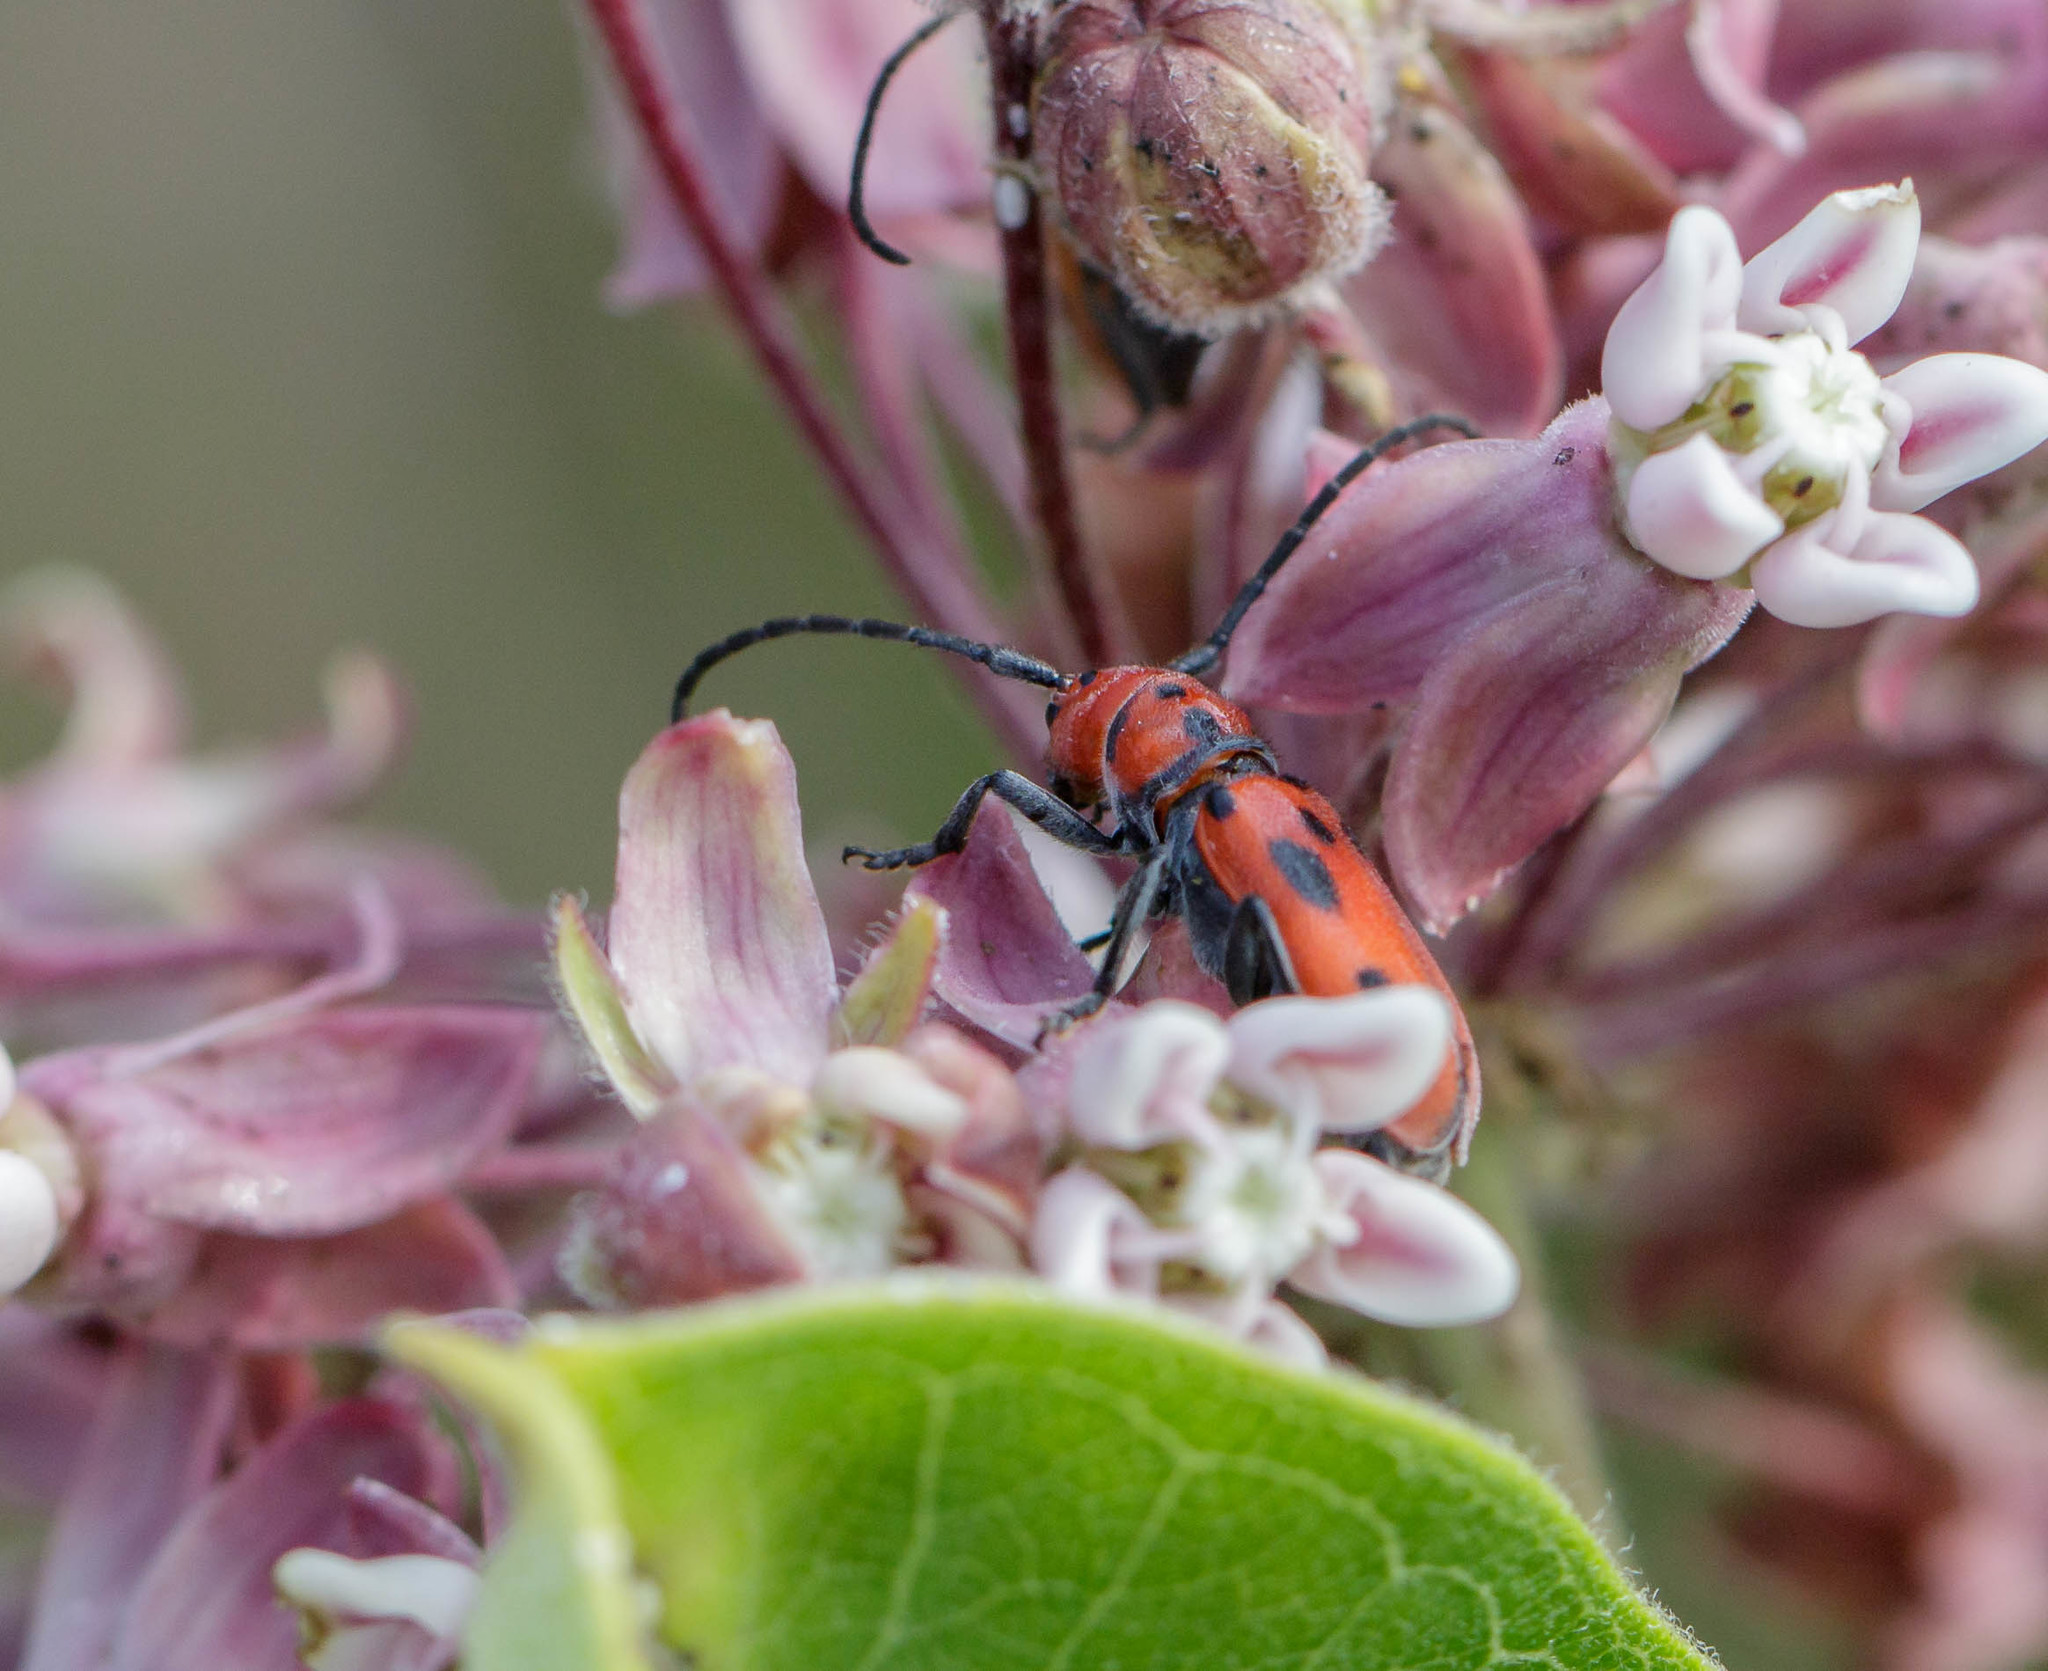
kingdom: Animalia
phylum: Arthropoda
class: Insecta
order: Coleoptera
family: Cerambycidae
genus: Tetraopes
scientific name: Tetraopes tetrophthalmus
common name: Red milkweed beetle
